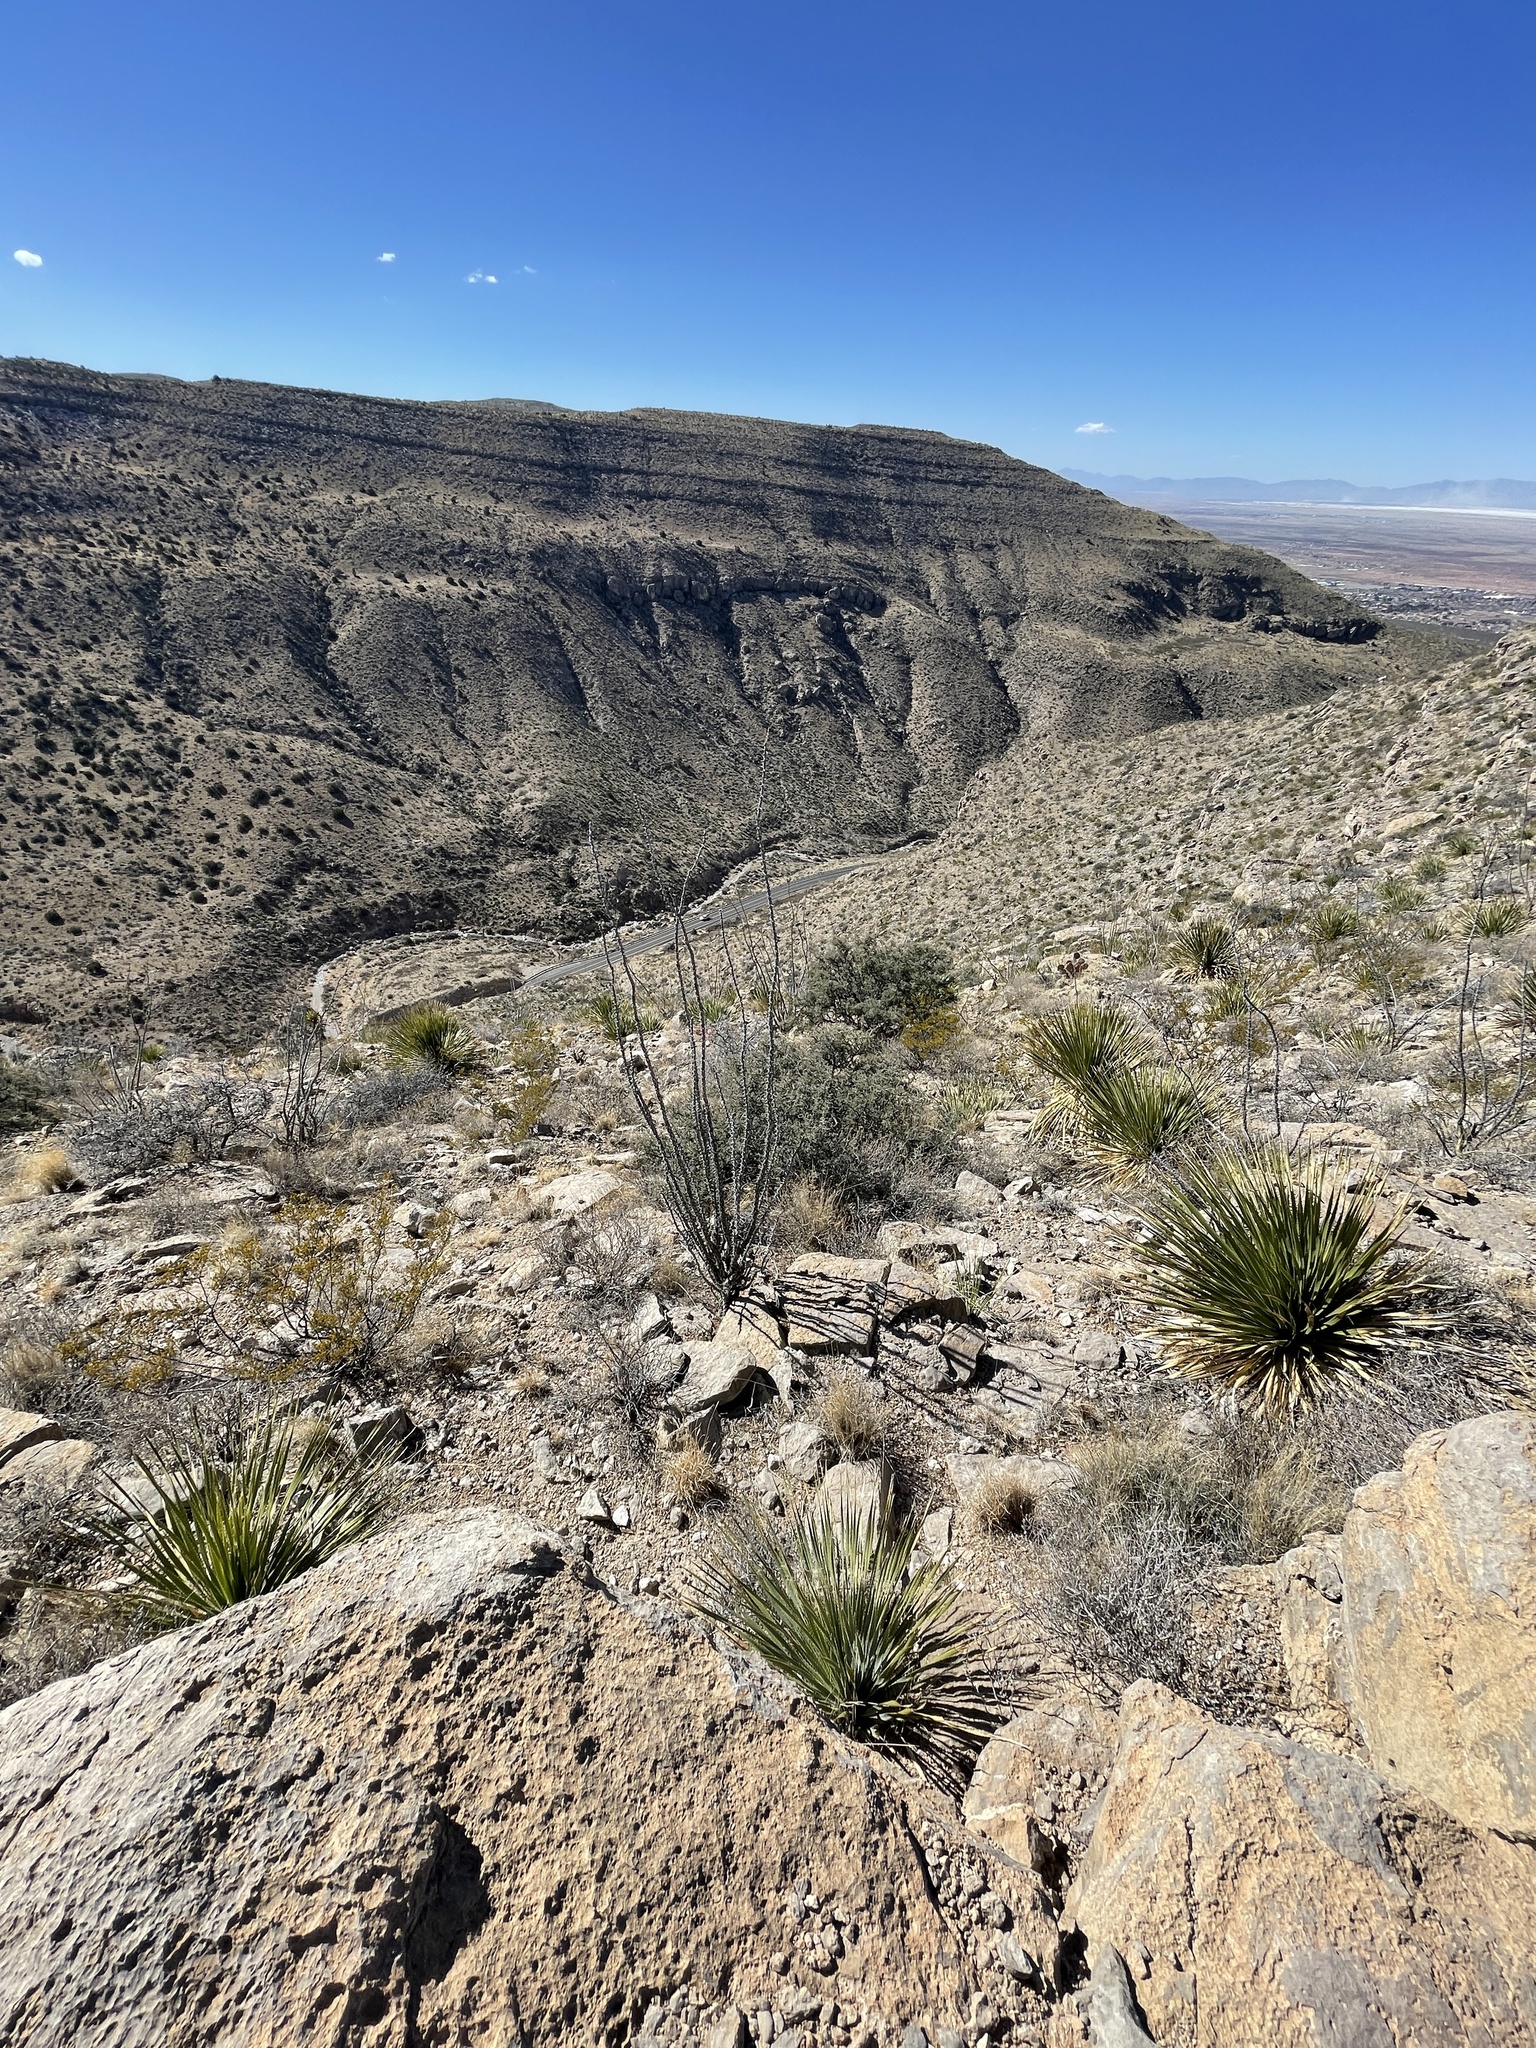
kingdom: Plantae
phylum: Tracheophyta
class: Magnoliopsida
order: Ericales
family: Fouquieriaceae
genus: Fouquieria
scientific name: Fouquieria splendens
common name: Vine-cactus
